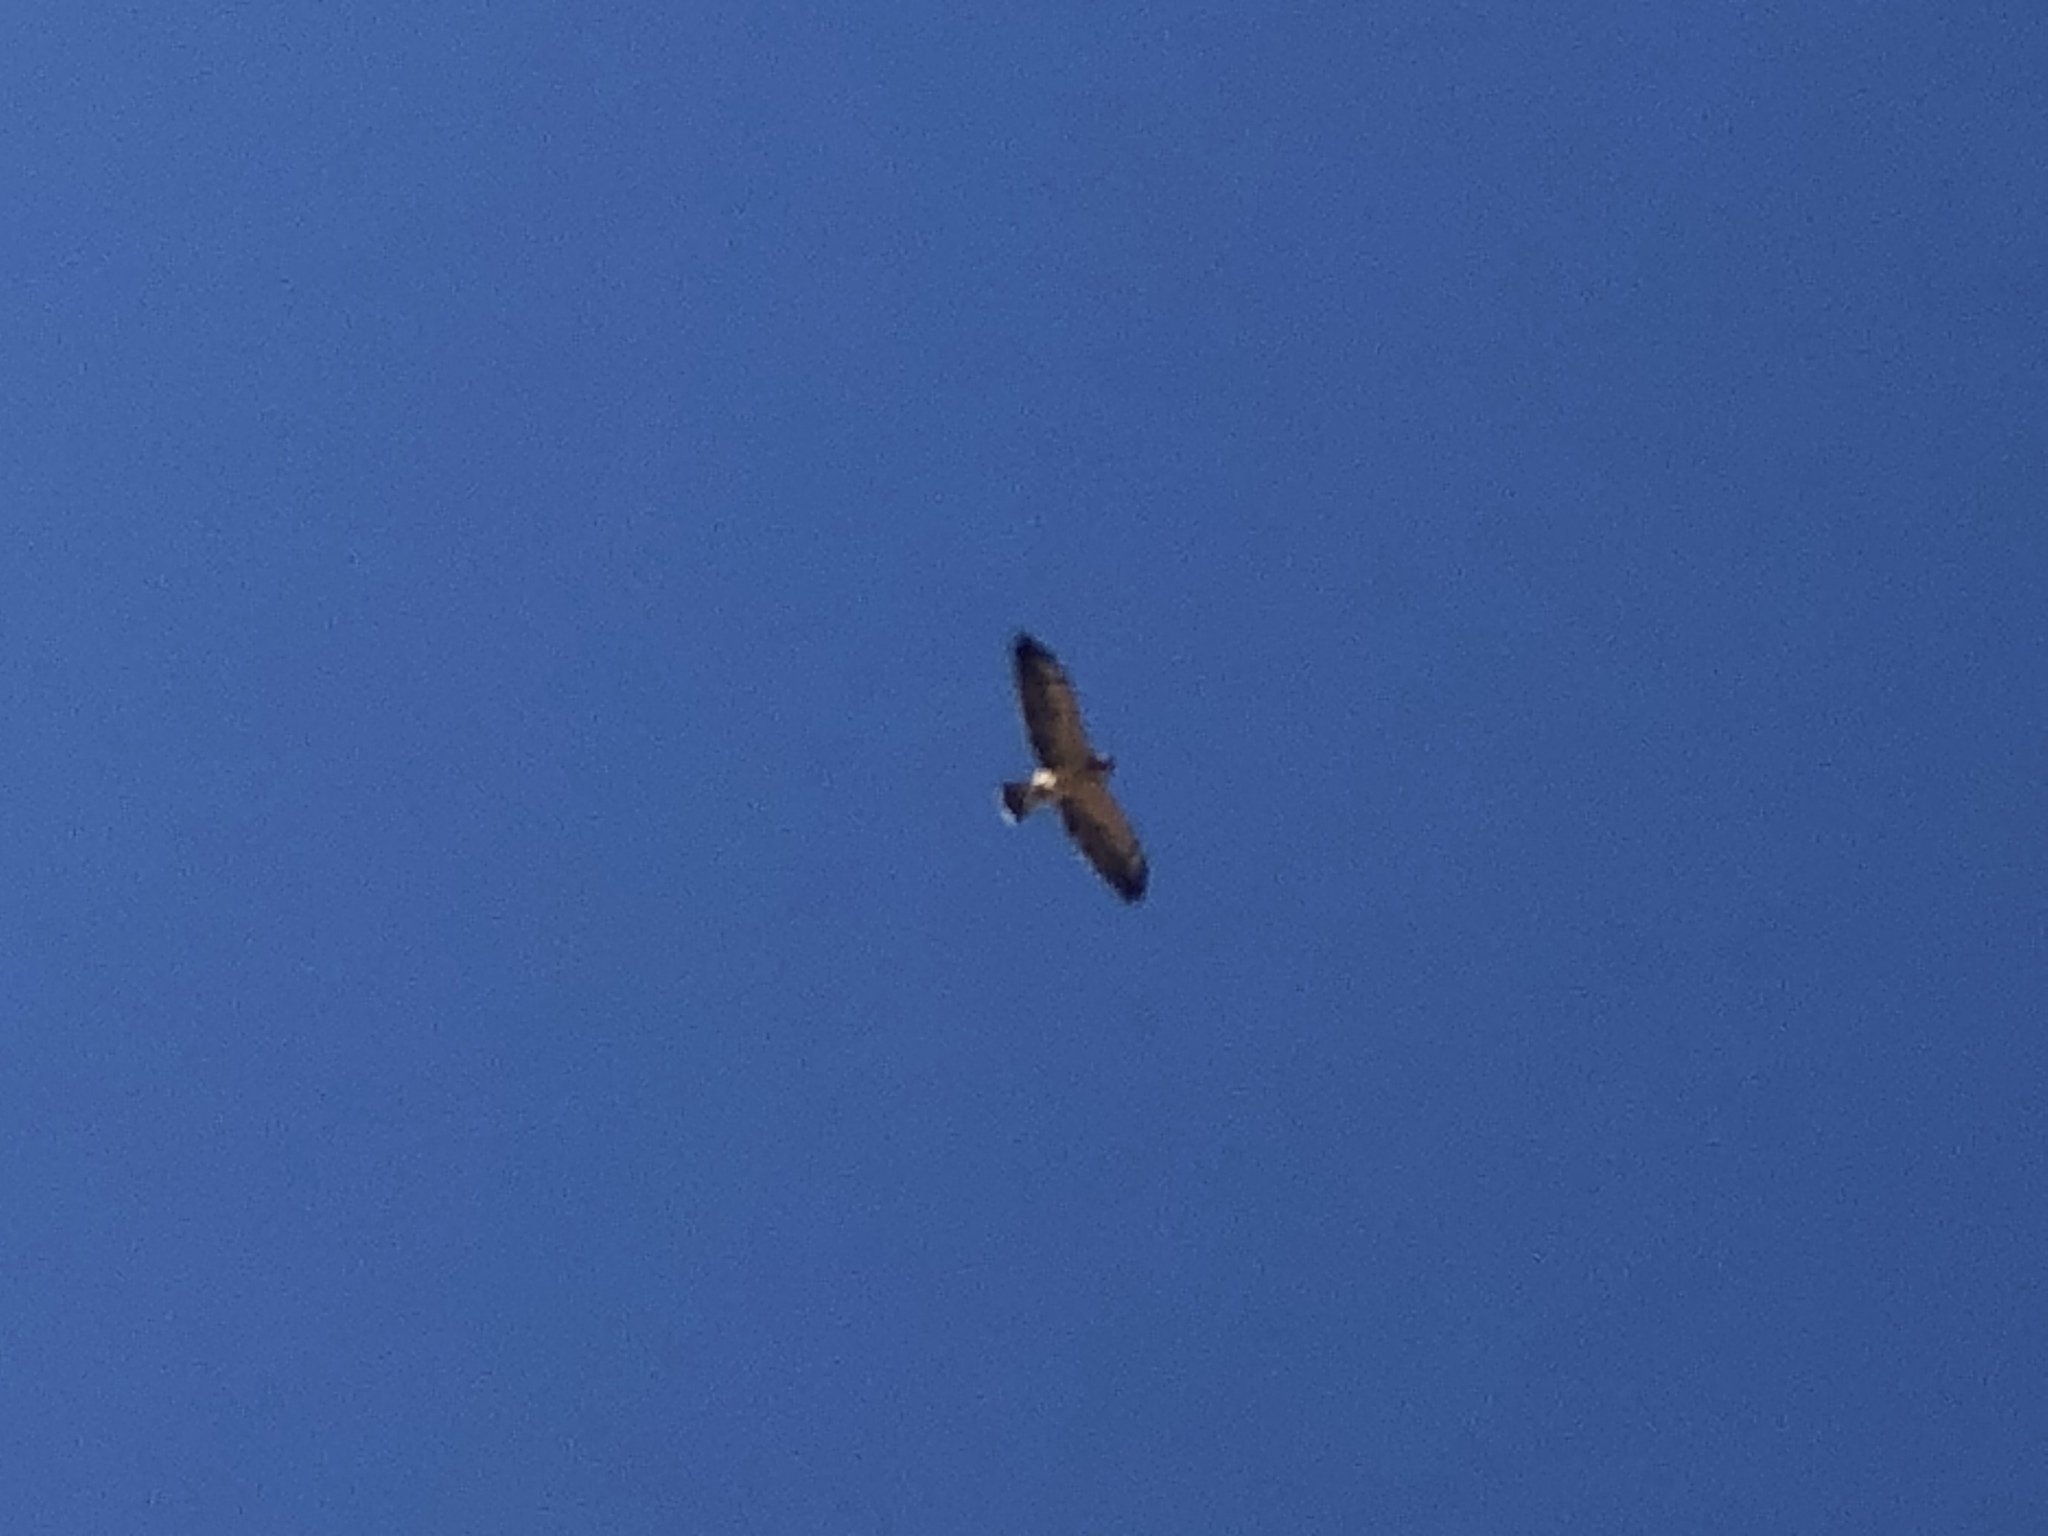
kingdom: Animalia
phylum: Chordata
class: Aves
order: Accipitriformes
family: Accipitridae
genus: Buteo
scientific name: Buteo swainsoni
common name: Swainson's hawk
